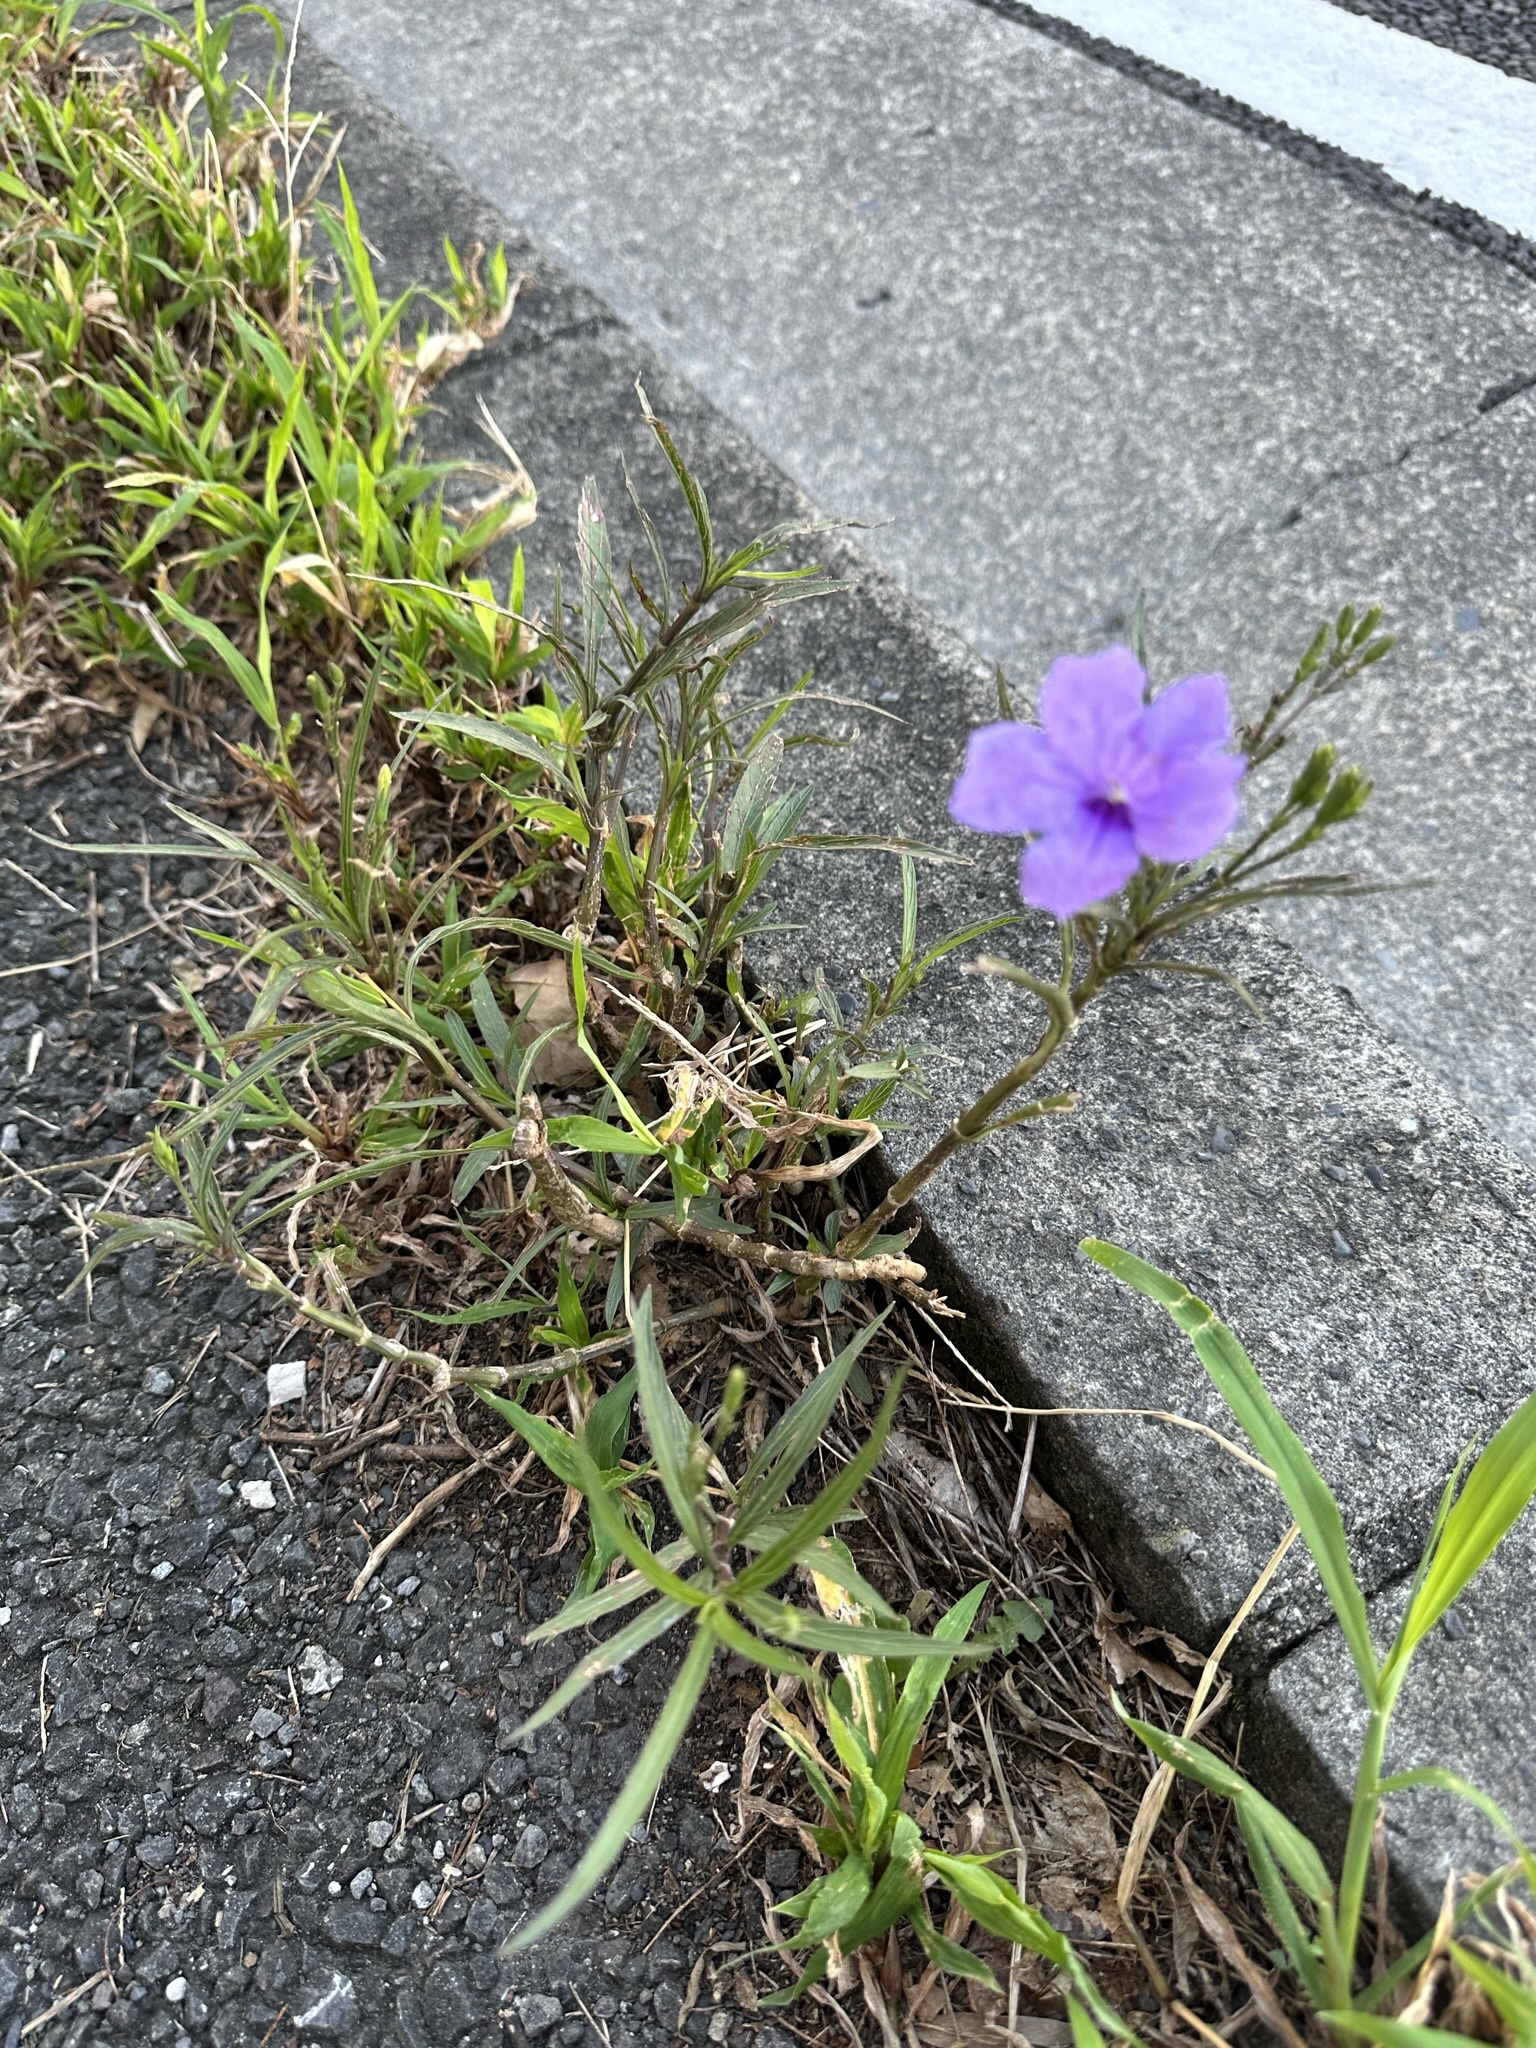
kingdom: Plantae
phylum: Tracheophyta
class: Magnoliopsida
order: Lamiales
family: Acanthaceae
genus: Ruellia
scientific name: Ruellia simplex
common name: Softseed wild petunia
